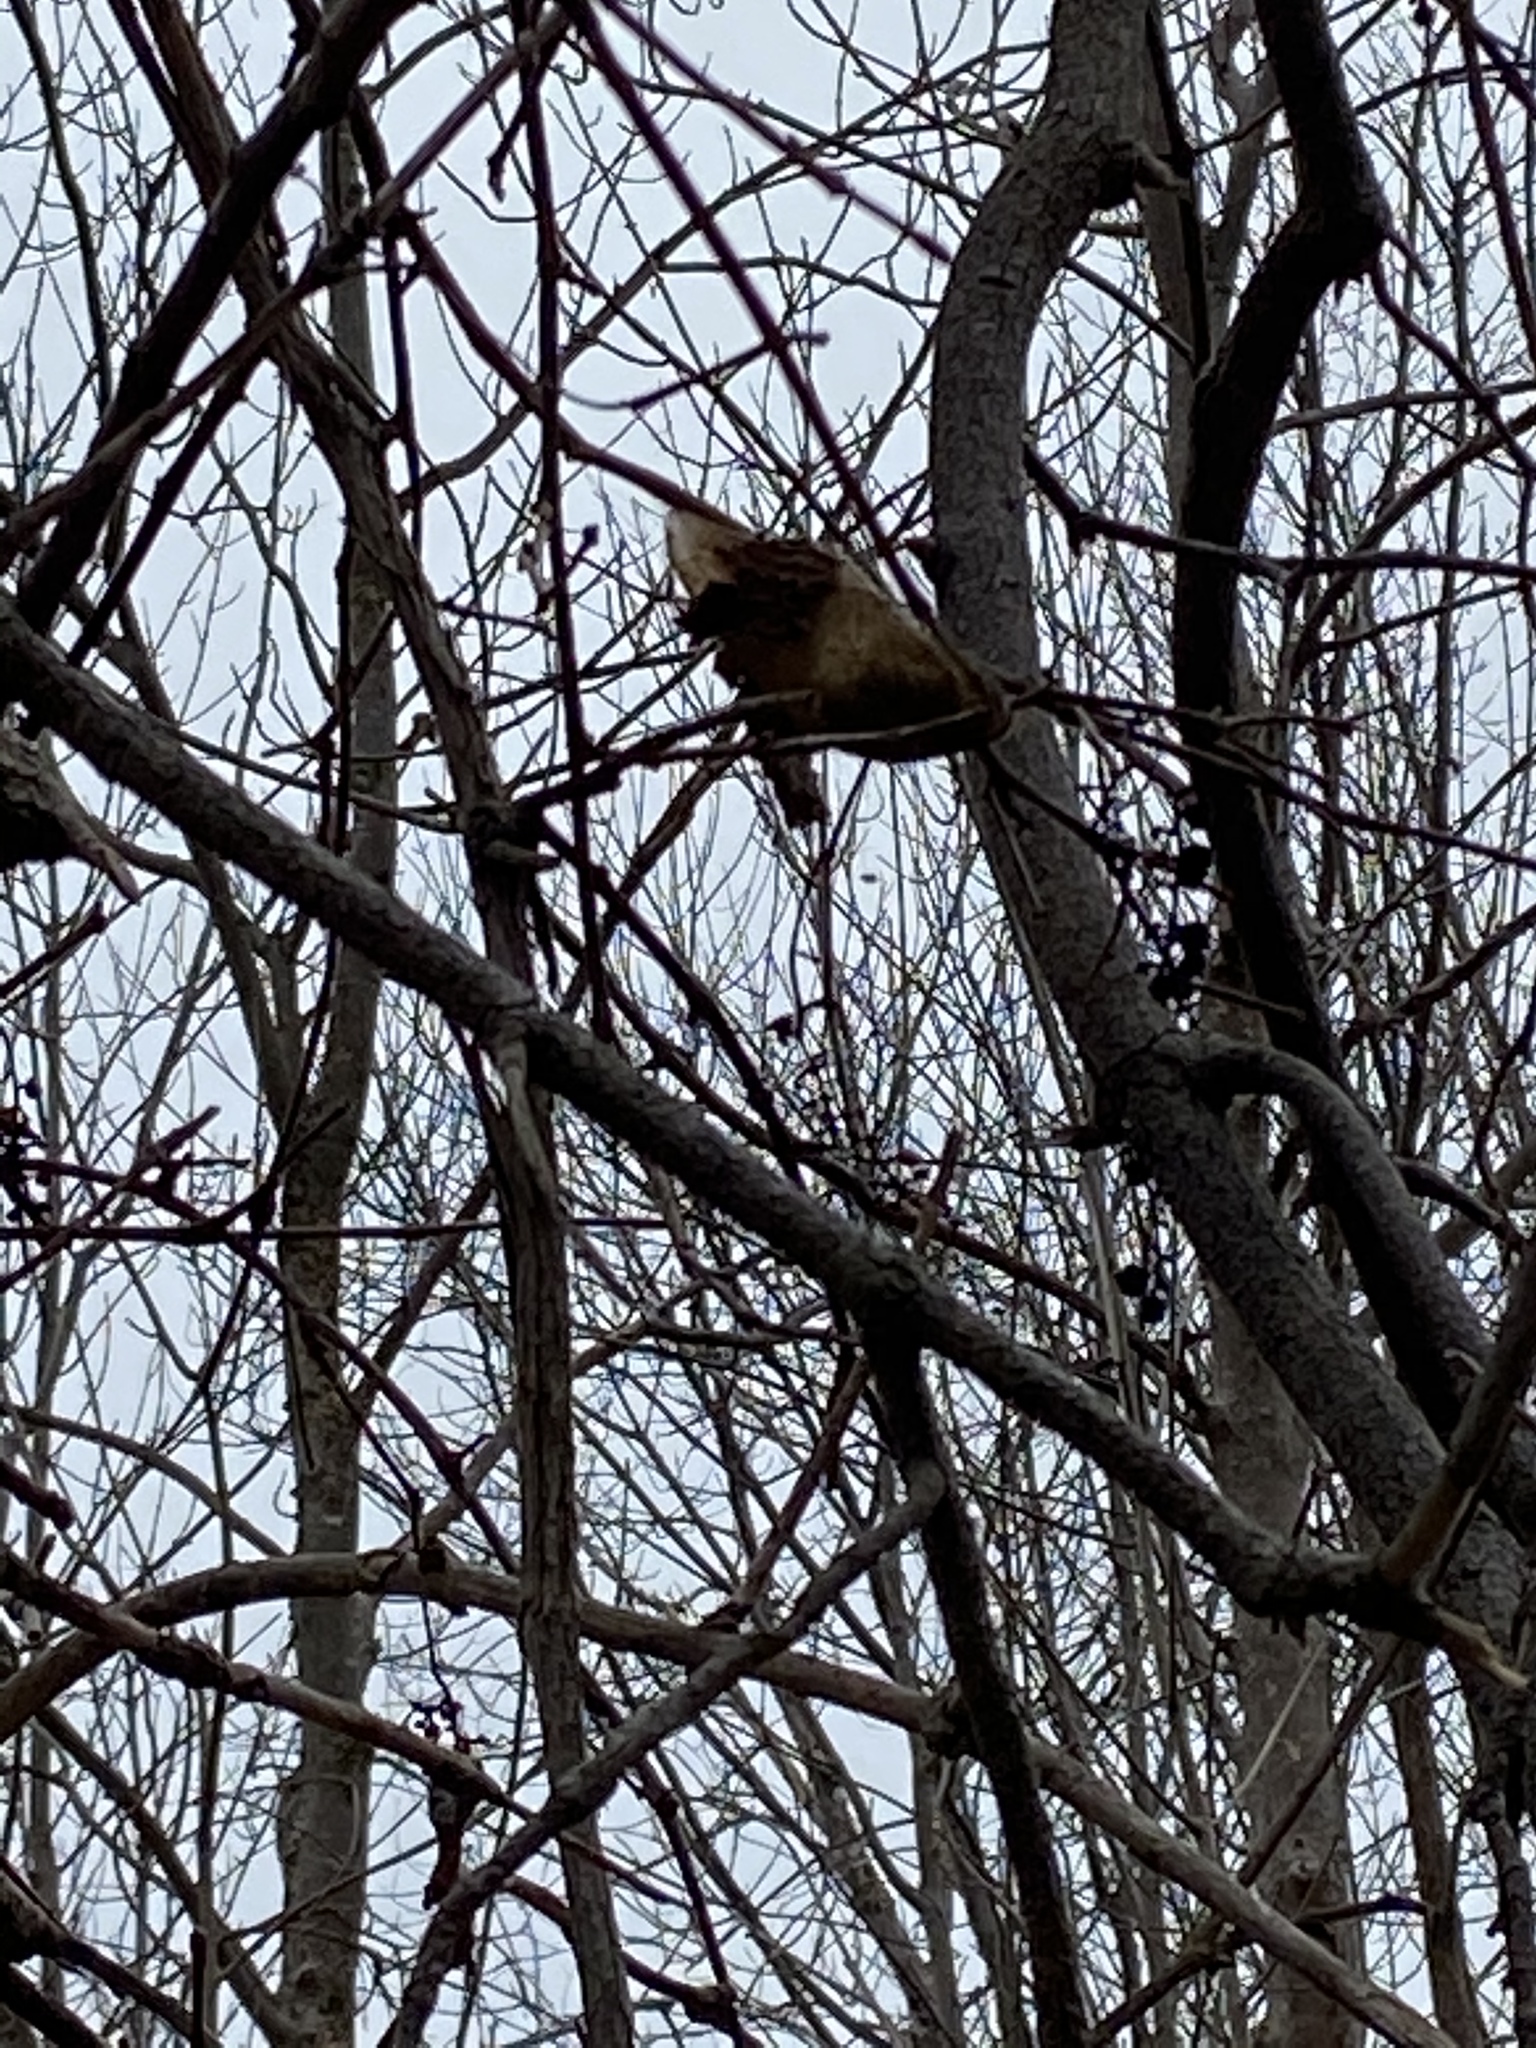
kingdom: Animalia
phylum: Arthropoda
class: Insecta
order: Lepidoptera
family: Saturniidae
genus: Hyalophora
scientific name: Hyalophora cecropia
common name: Cecropia silkmoth
